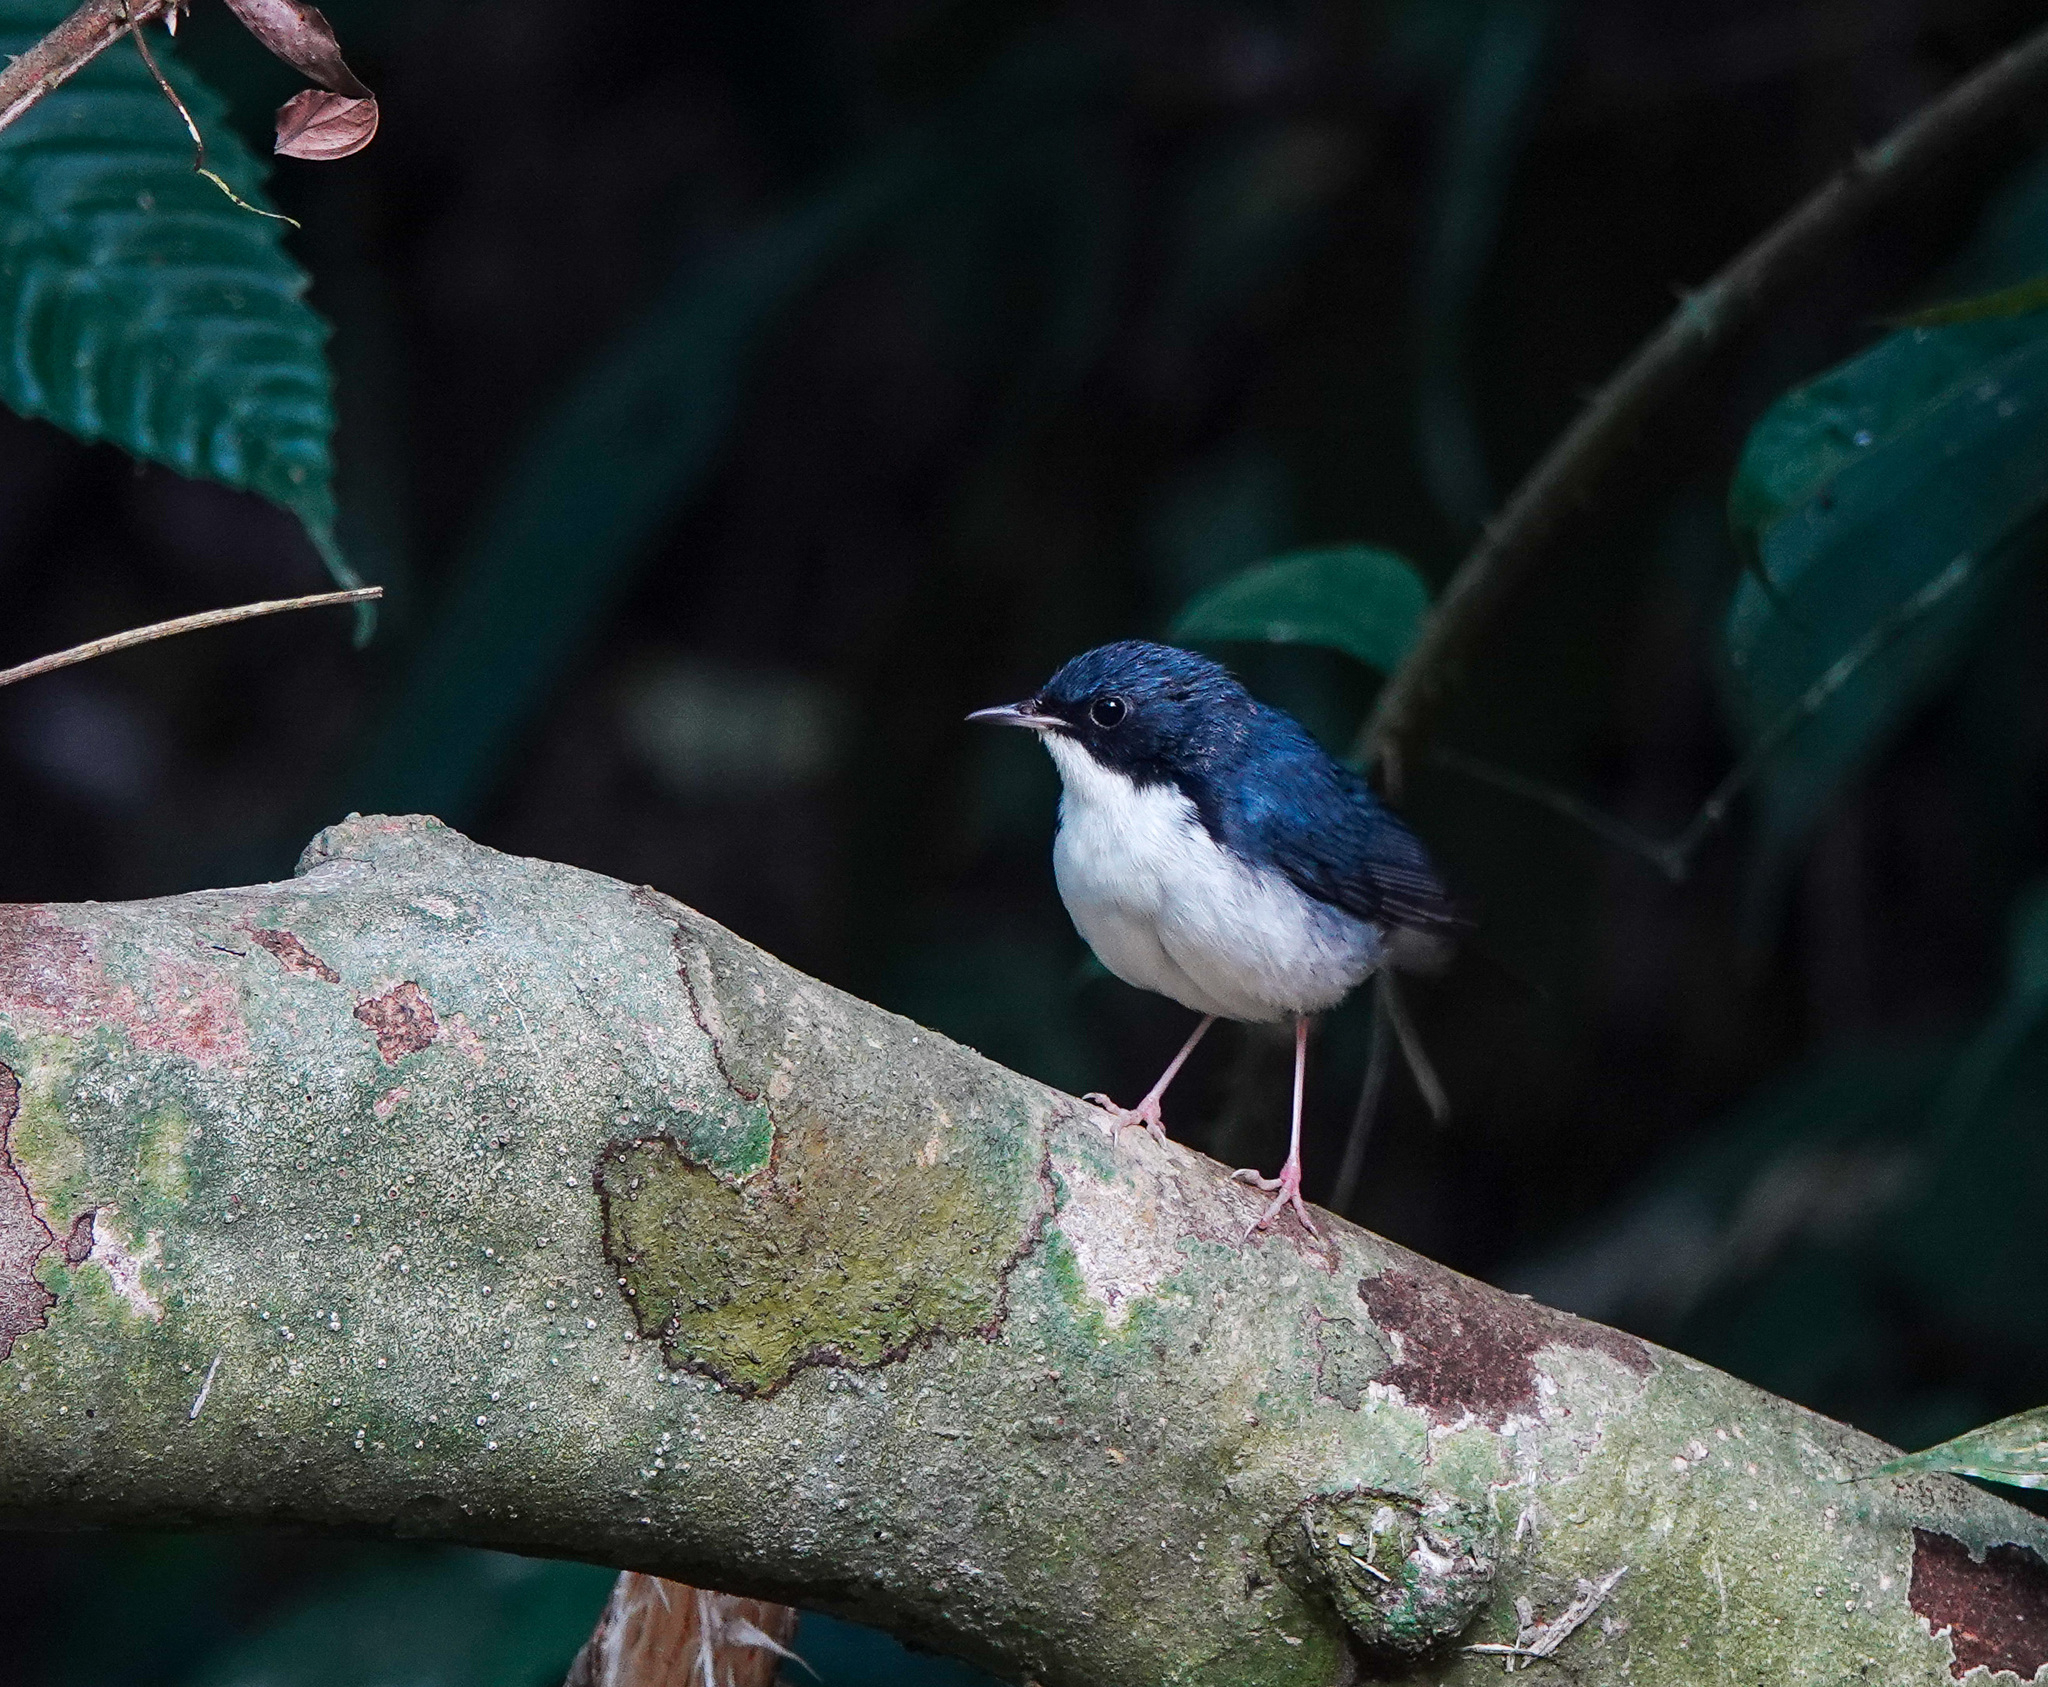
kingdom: Animalia
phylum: Chordata
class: Aves
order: Passeriformes
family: Muscicapidae
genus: Luscinia
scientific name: Luscinia cyane
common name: Siberian blue robin
